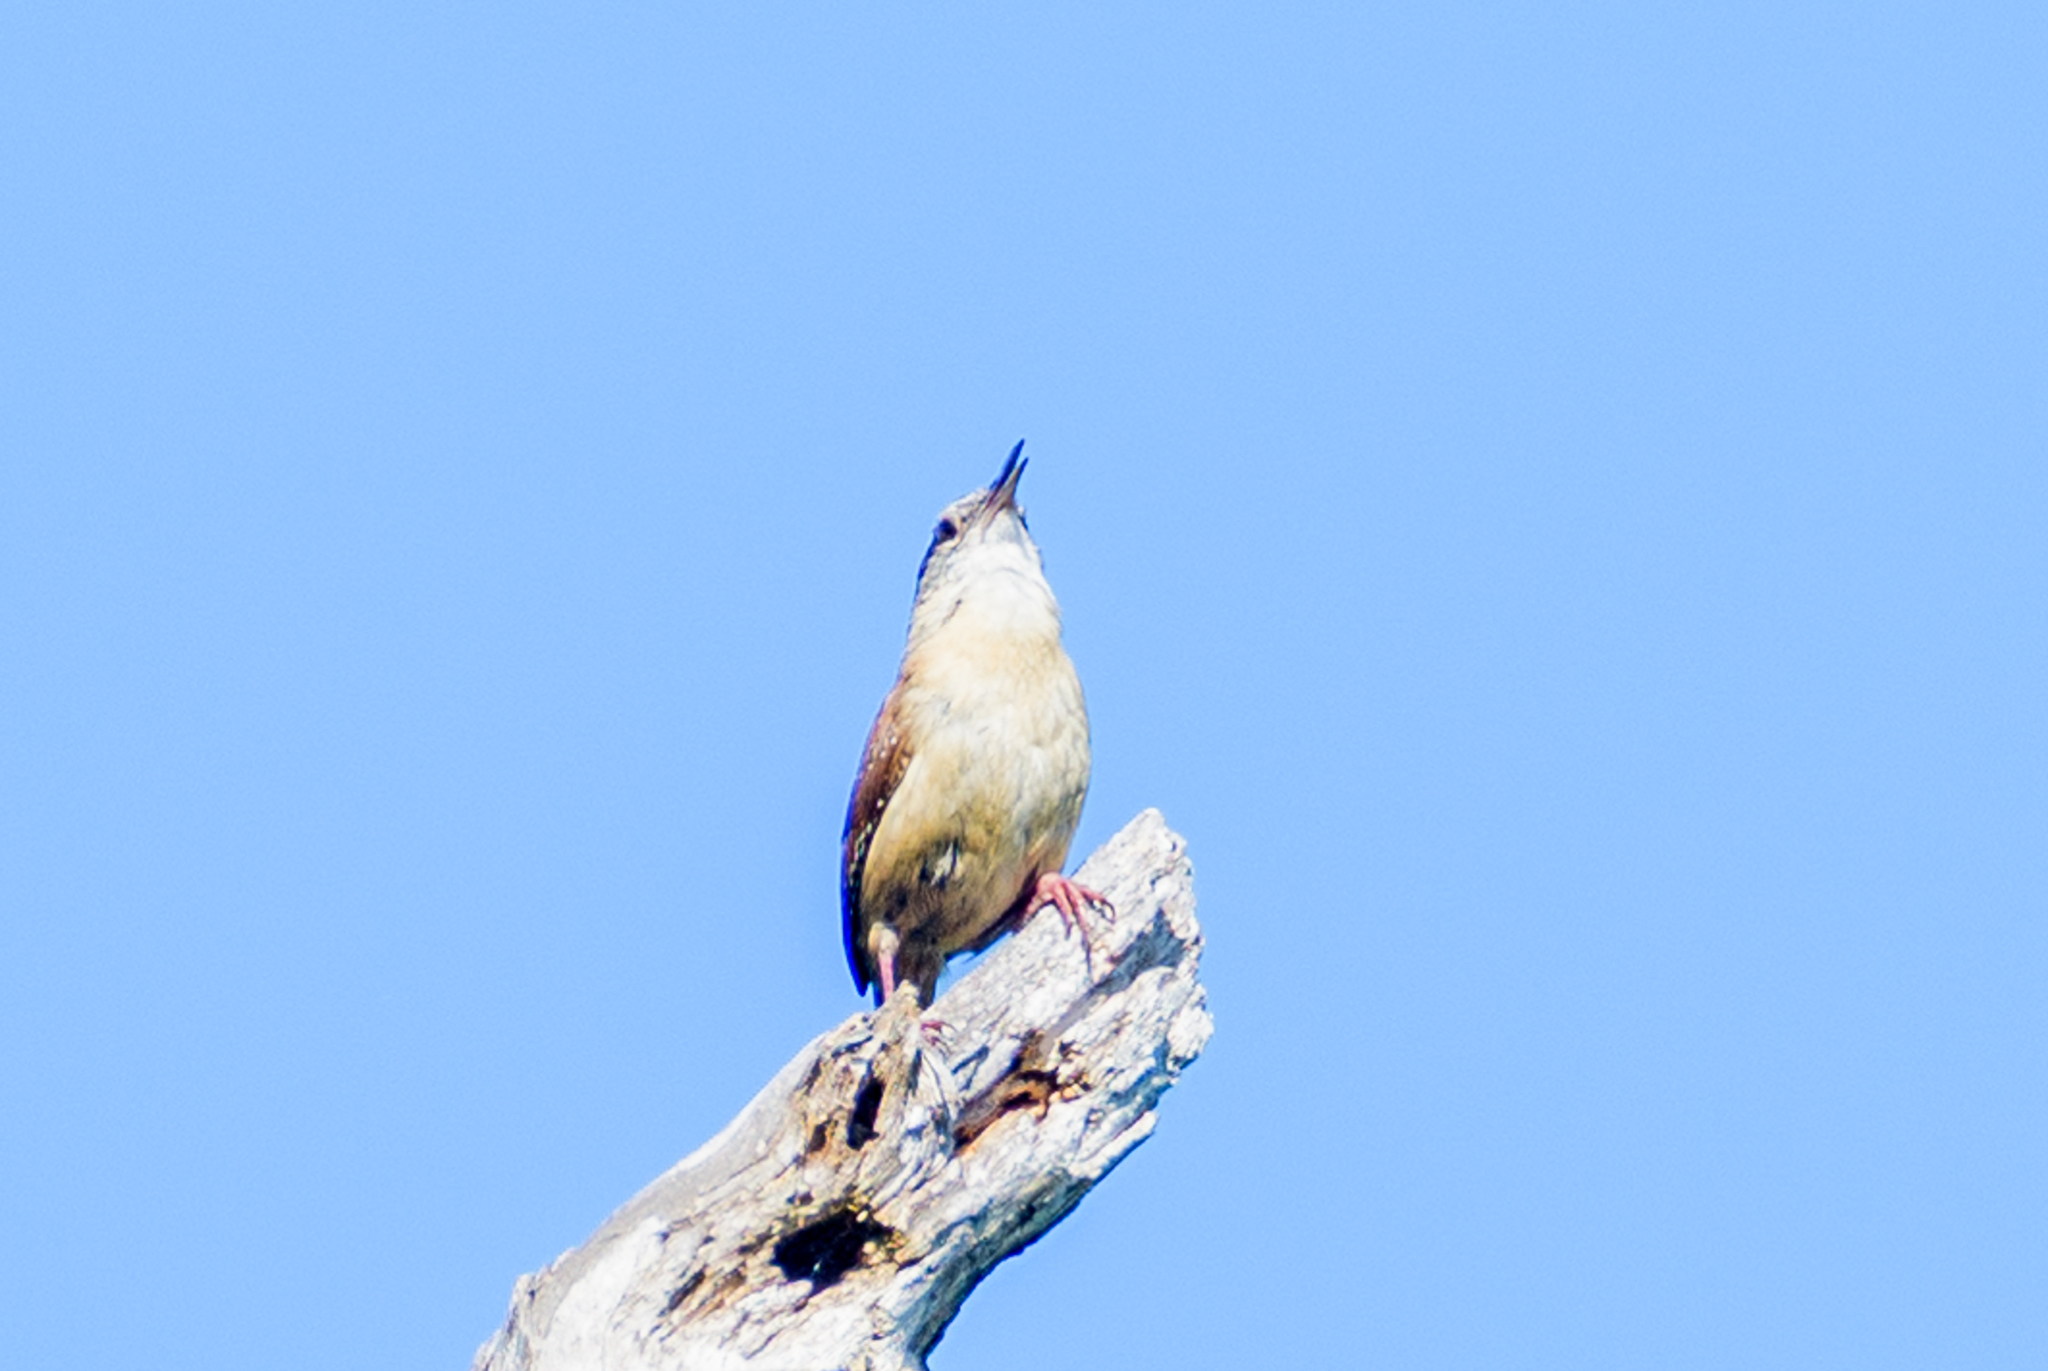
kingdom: Animalia
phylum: Chordata
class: Aves
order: Passeriformes
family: Troglodytidae
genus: Thryothorus
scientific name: Thryothorus ludovicianus
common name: Carolina wren
